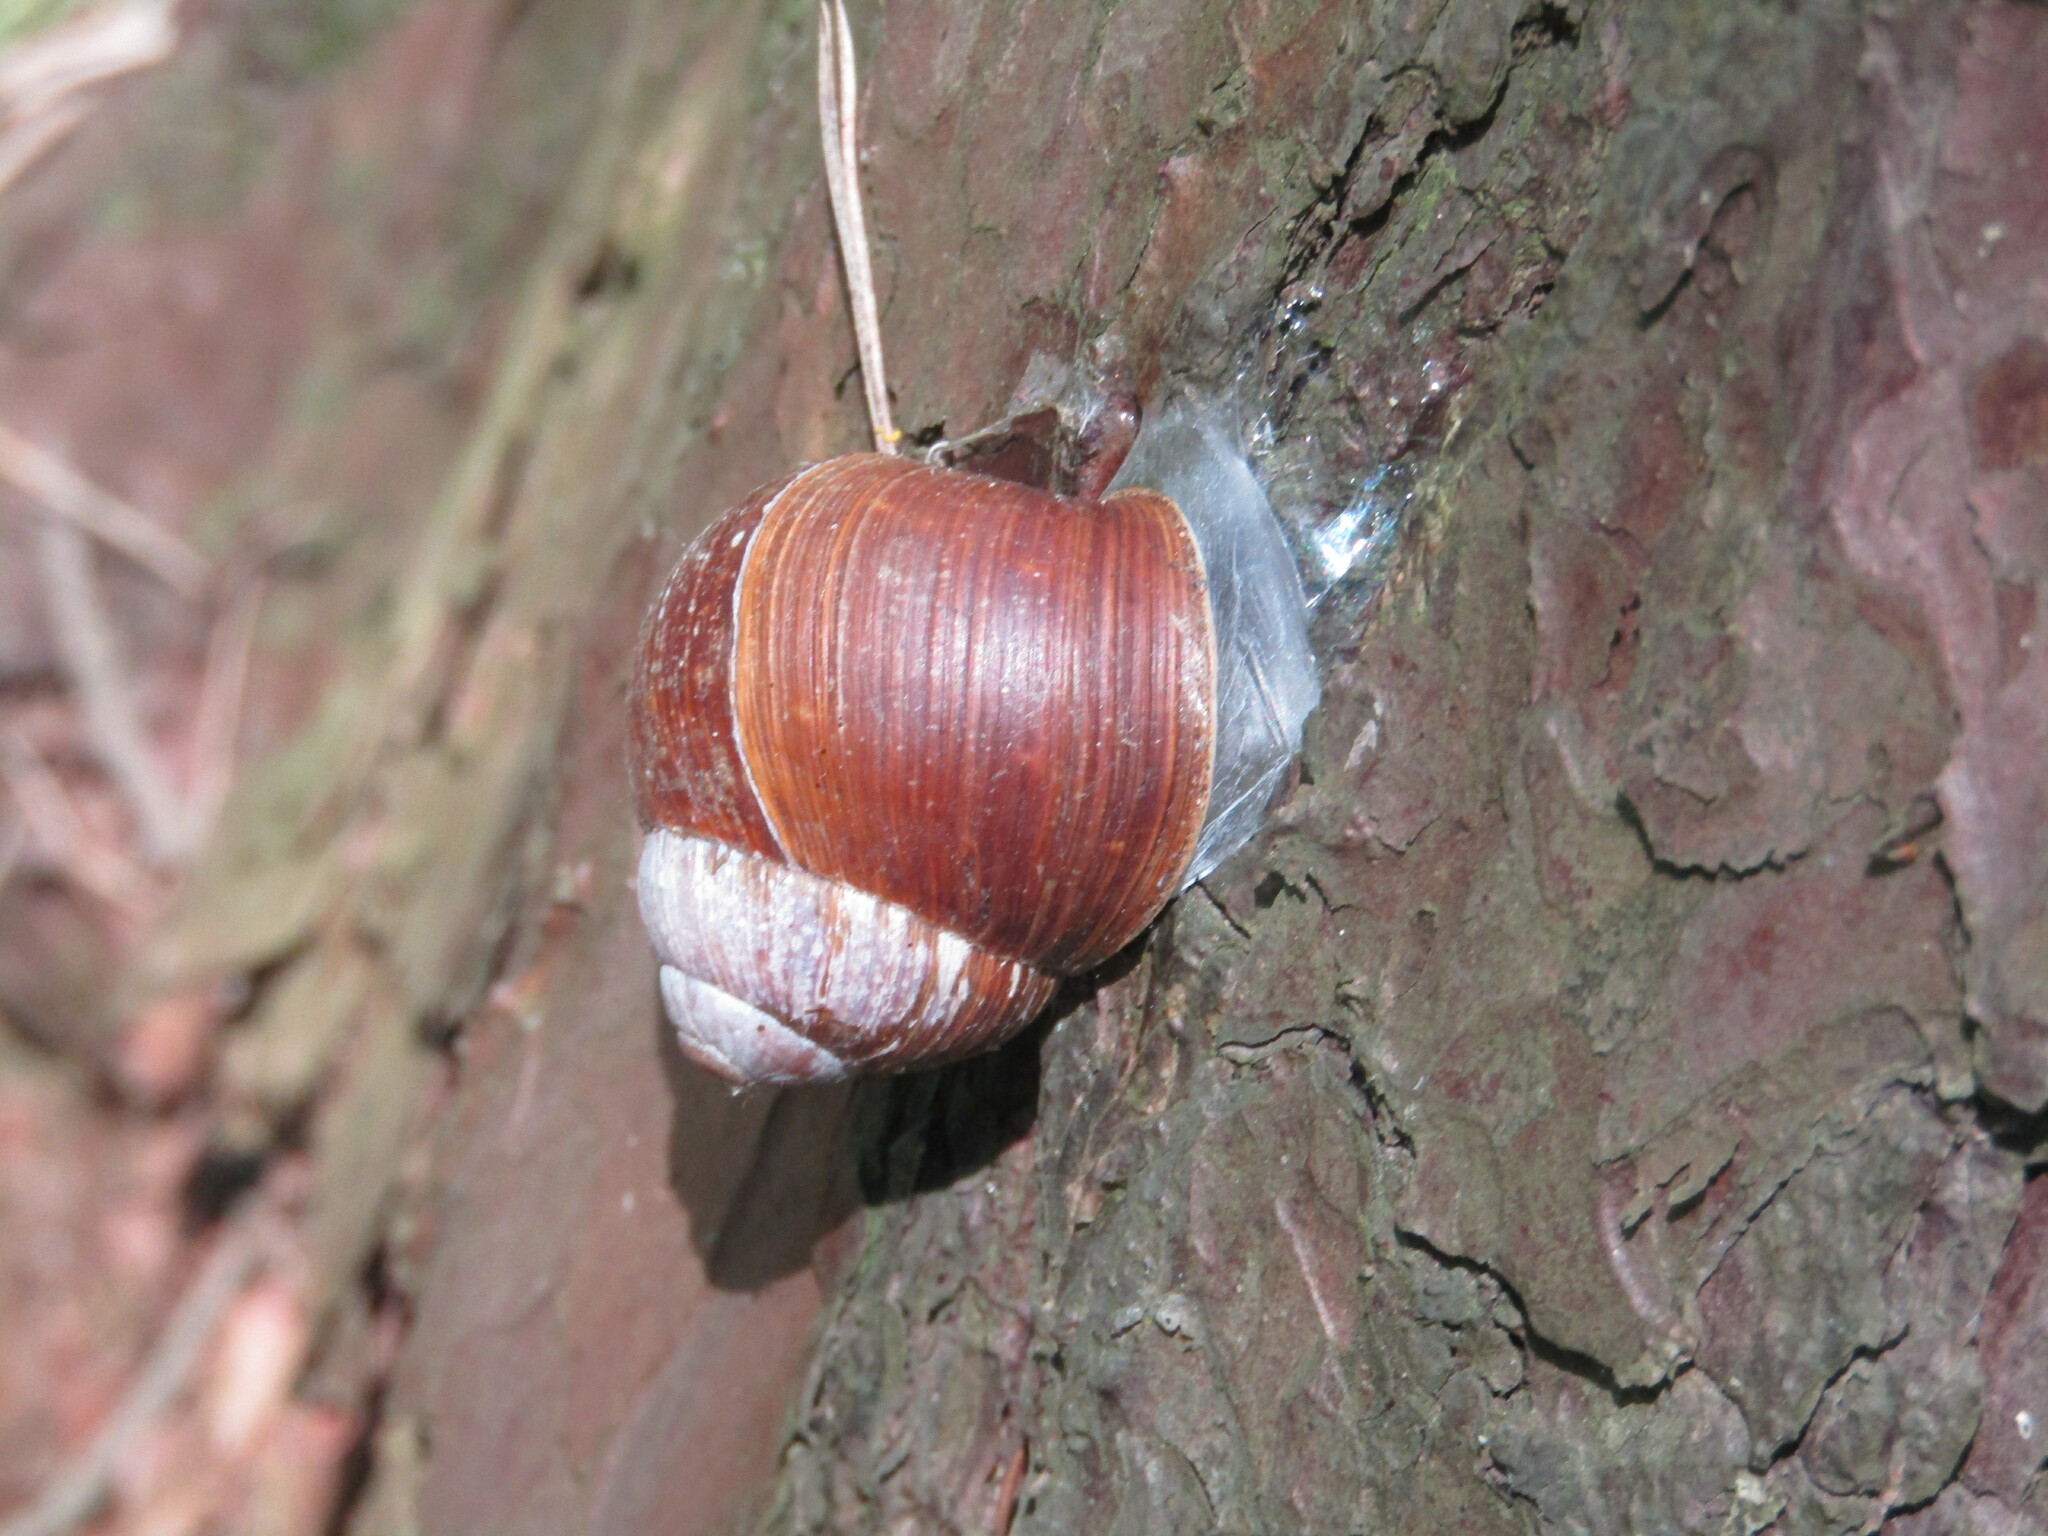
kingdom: Animalia
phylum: Mollusca
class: Gastropoda
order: Stylommatophora
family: Helicidae
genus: Helix
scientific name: Helix pomatia
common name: Roman snail
